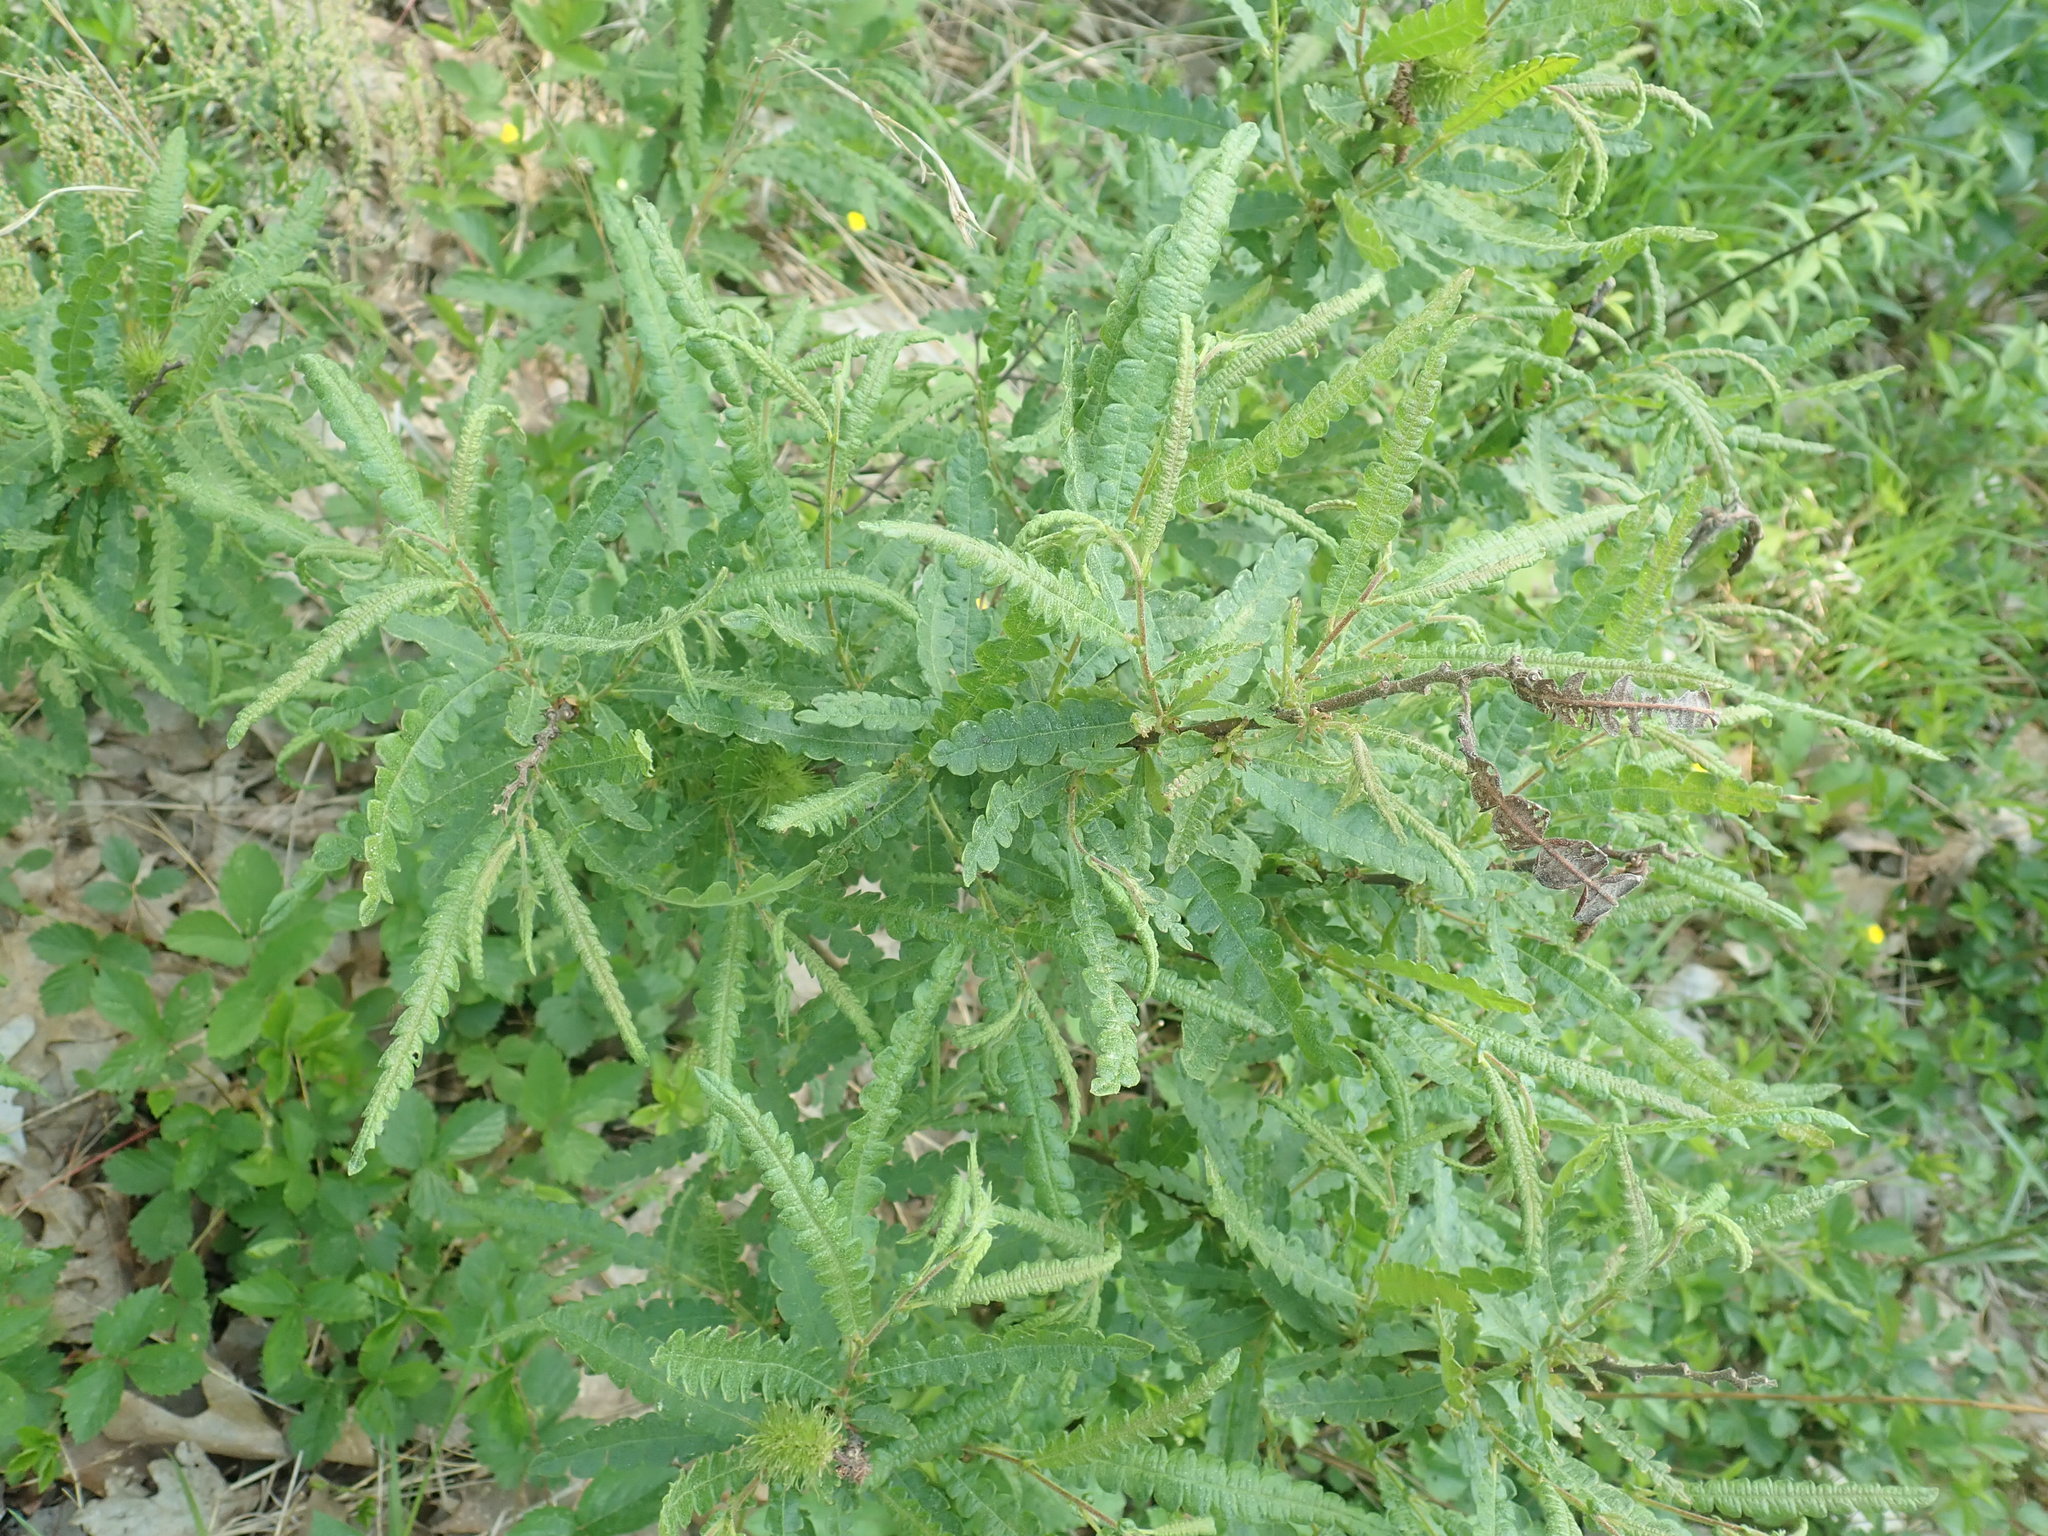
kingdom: Plantae
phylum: Tracheophyta
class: Magnoliopsida
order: Fagales
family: Myricaceae
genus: Comptonia
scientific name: Comptonia peregrina
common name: Sweet-fern
